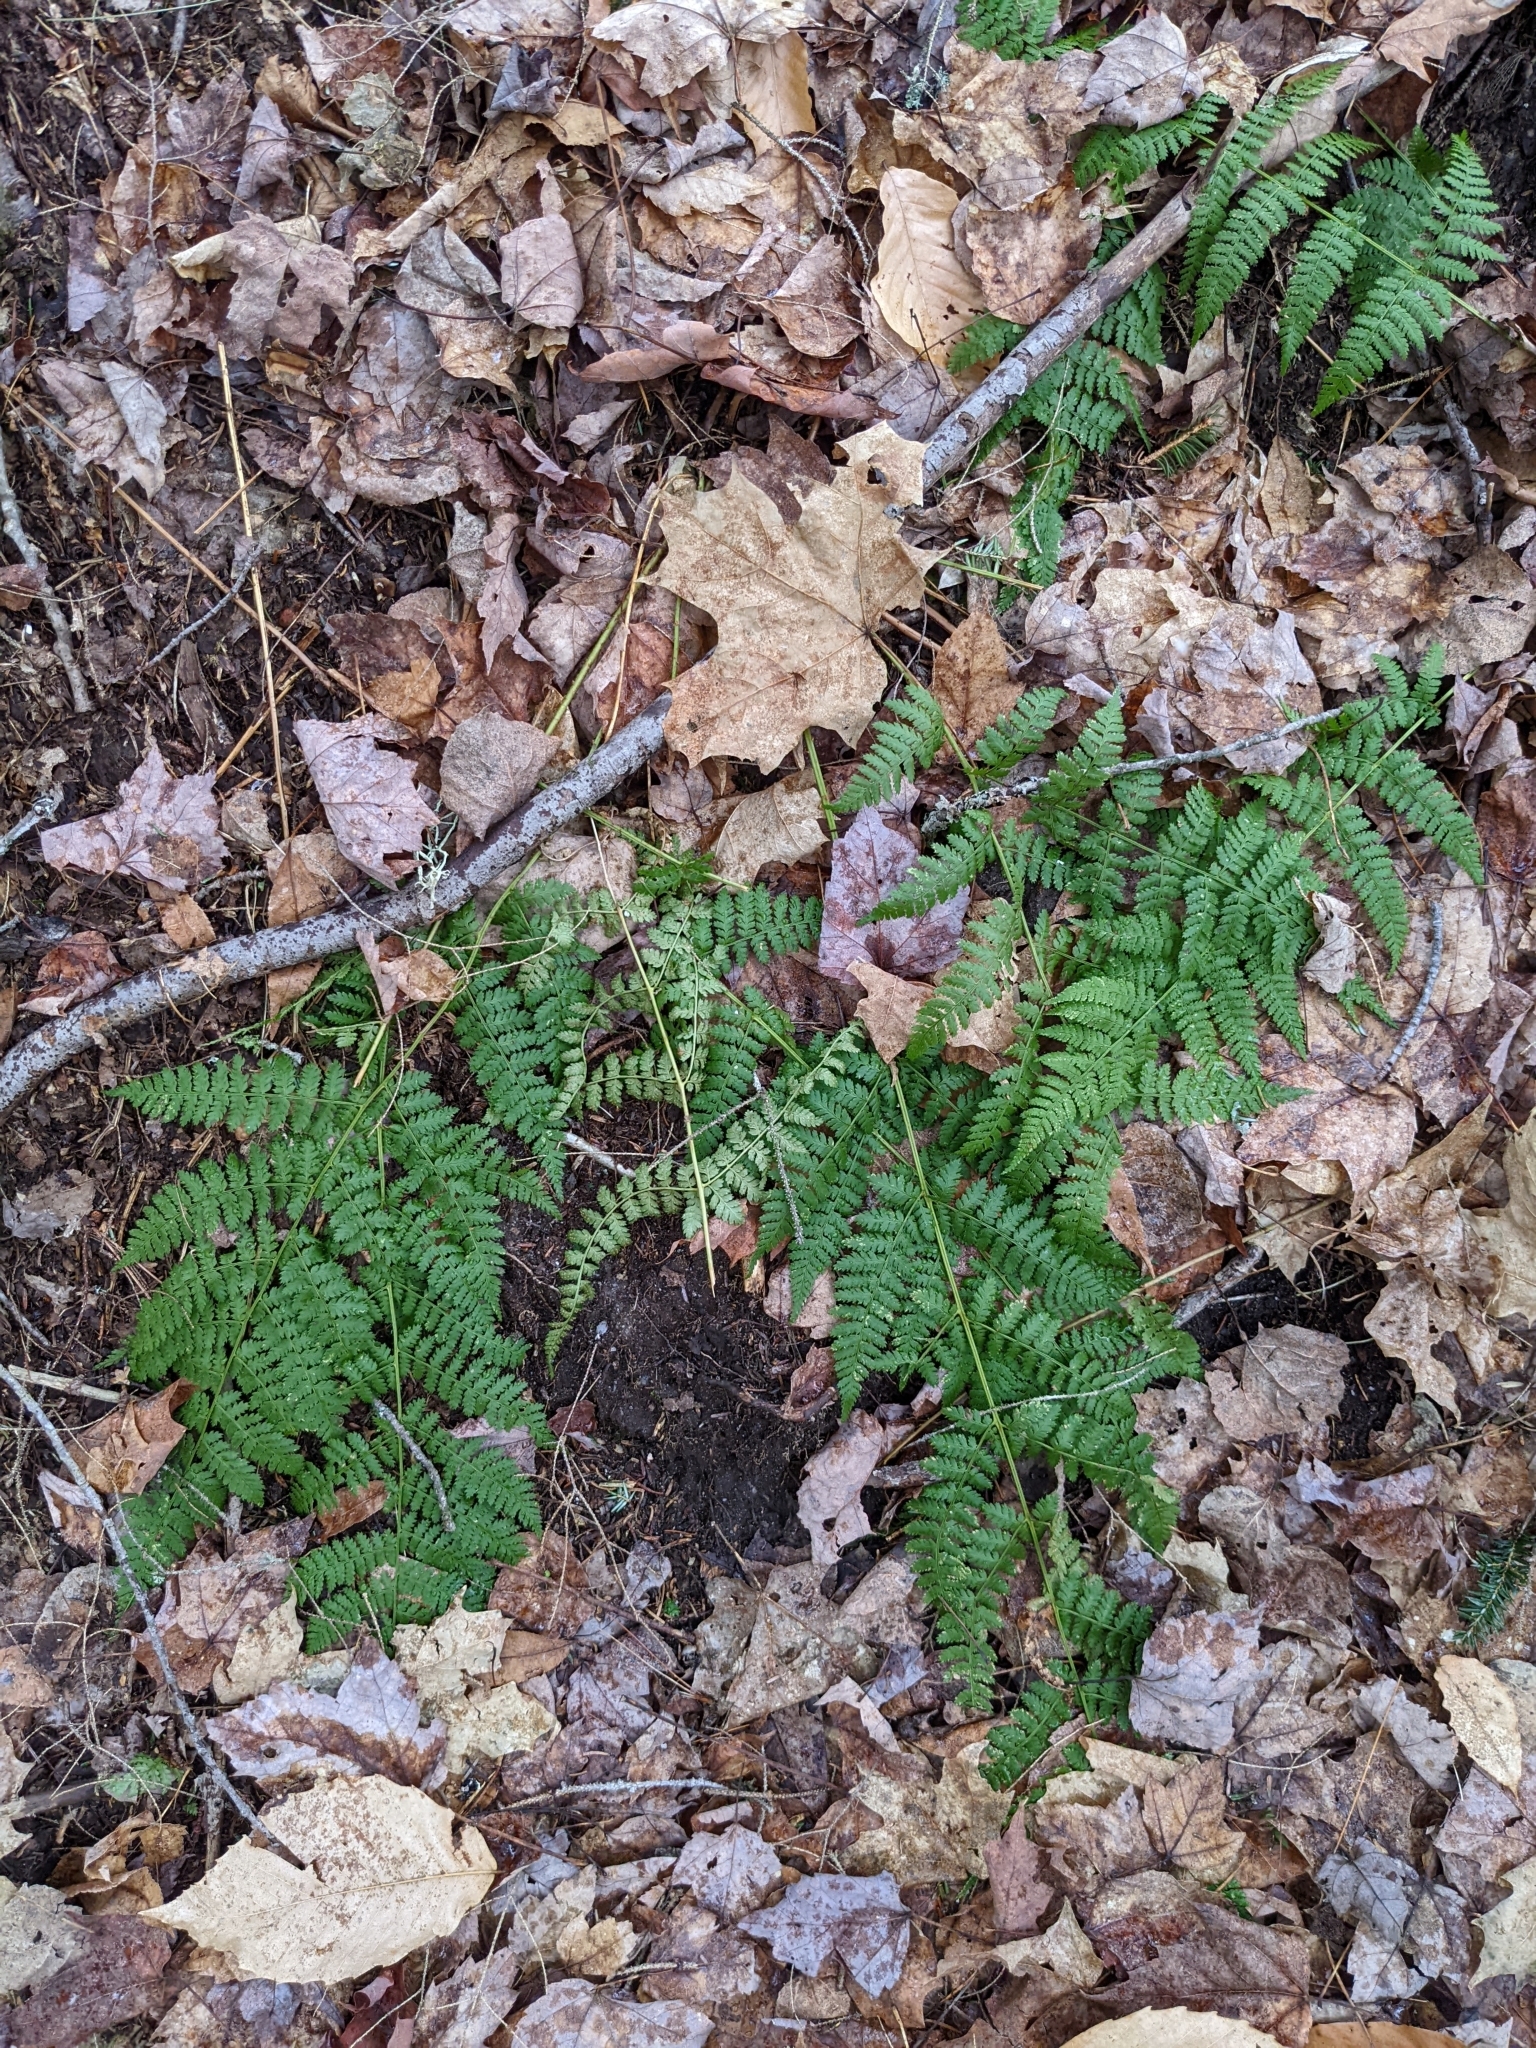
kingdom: Plantae
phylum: Tracheophyta
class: Polypodiopsida
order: Polypodiales
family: Dryopteridaceae
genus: Dryopteris
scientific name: Dryopteris intermedia
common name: Evergreen wood fern
